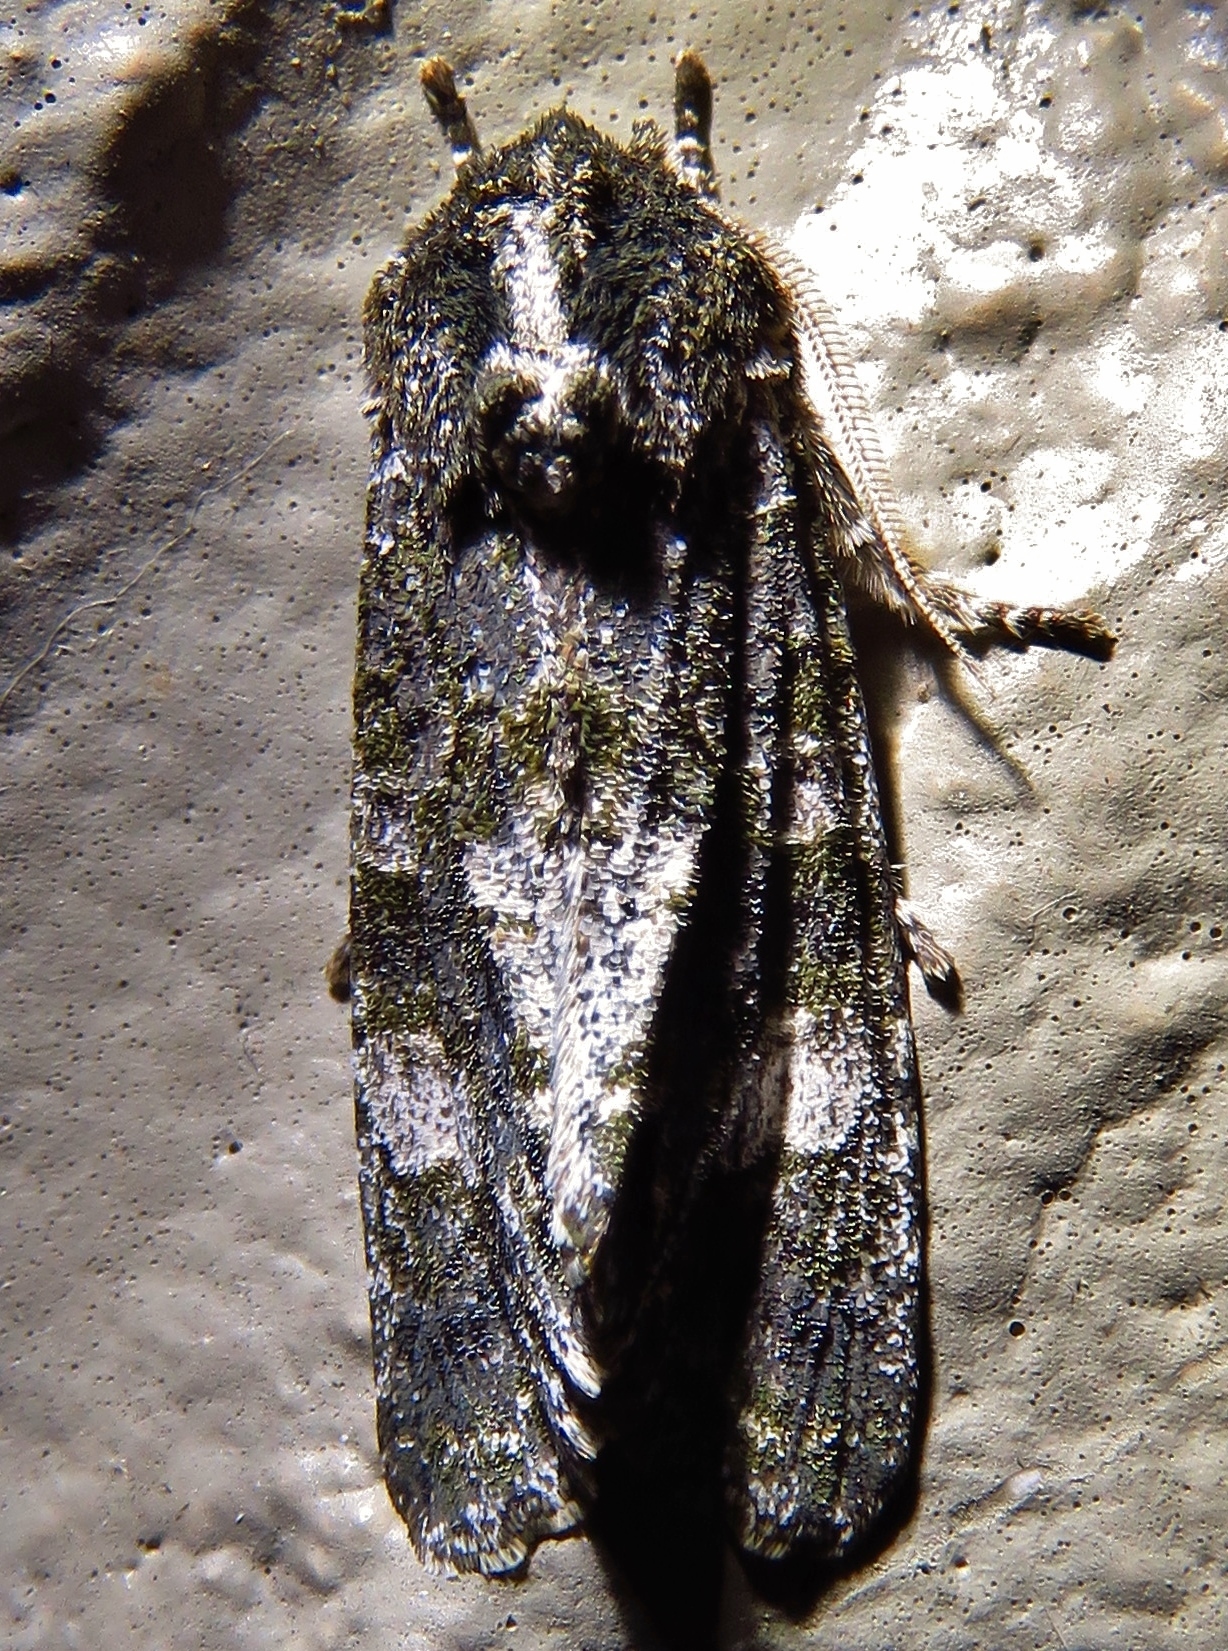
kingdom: Animalia
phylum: Arthropoda
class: Insecta
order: Lepidoptera
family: Noctuidae
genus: Psaphida
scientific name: Psaphida grotei
